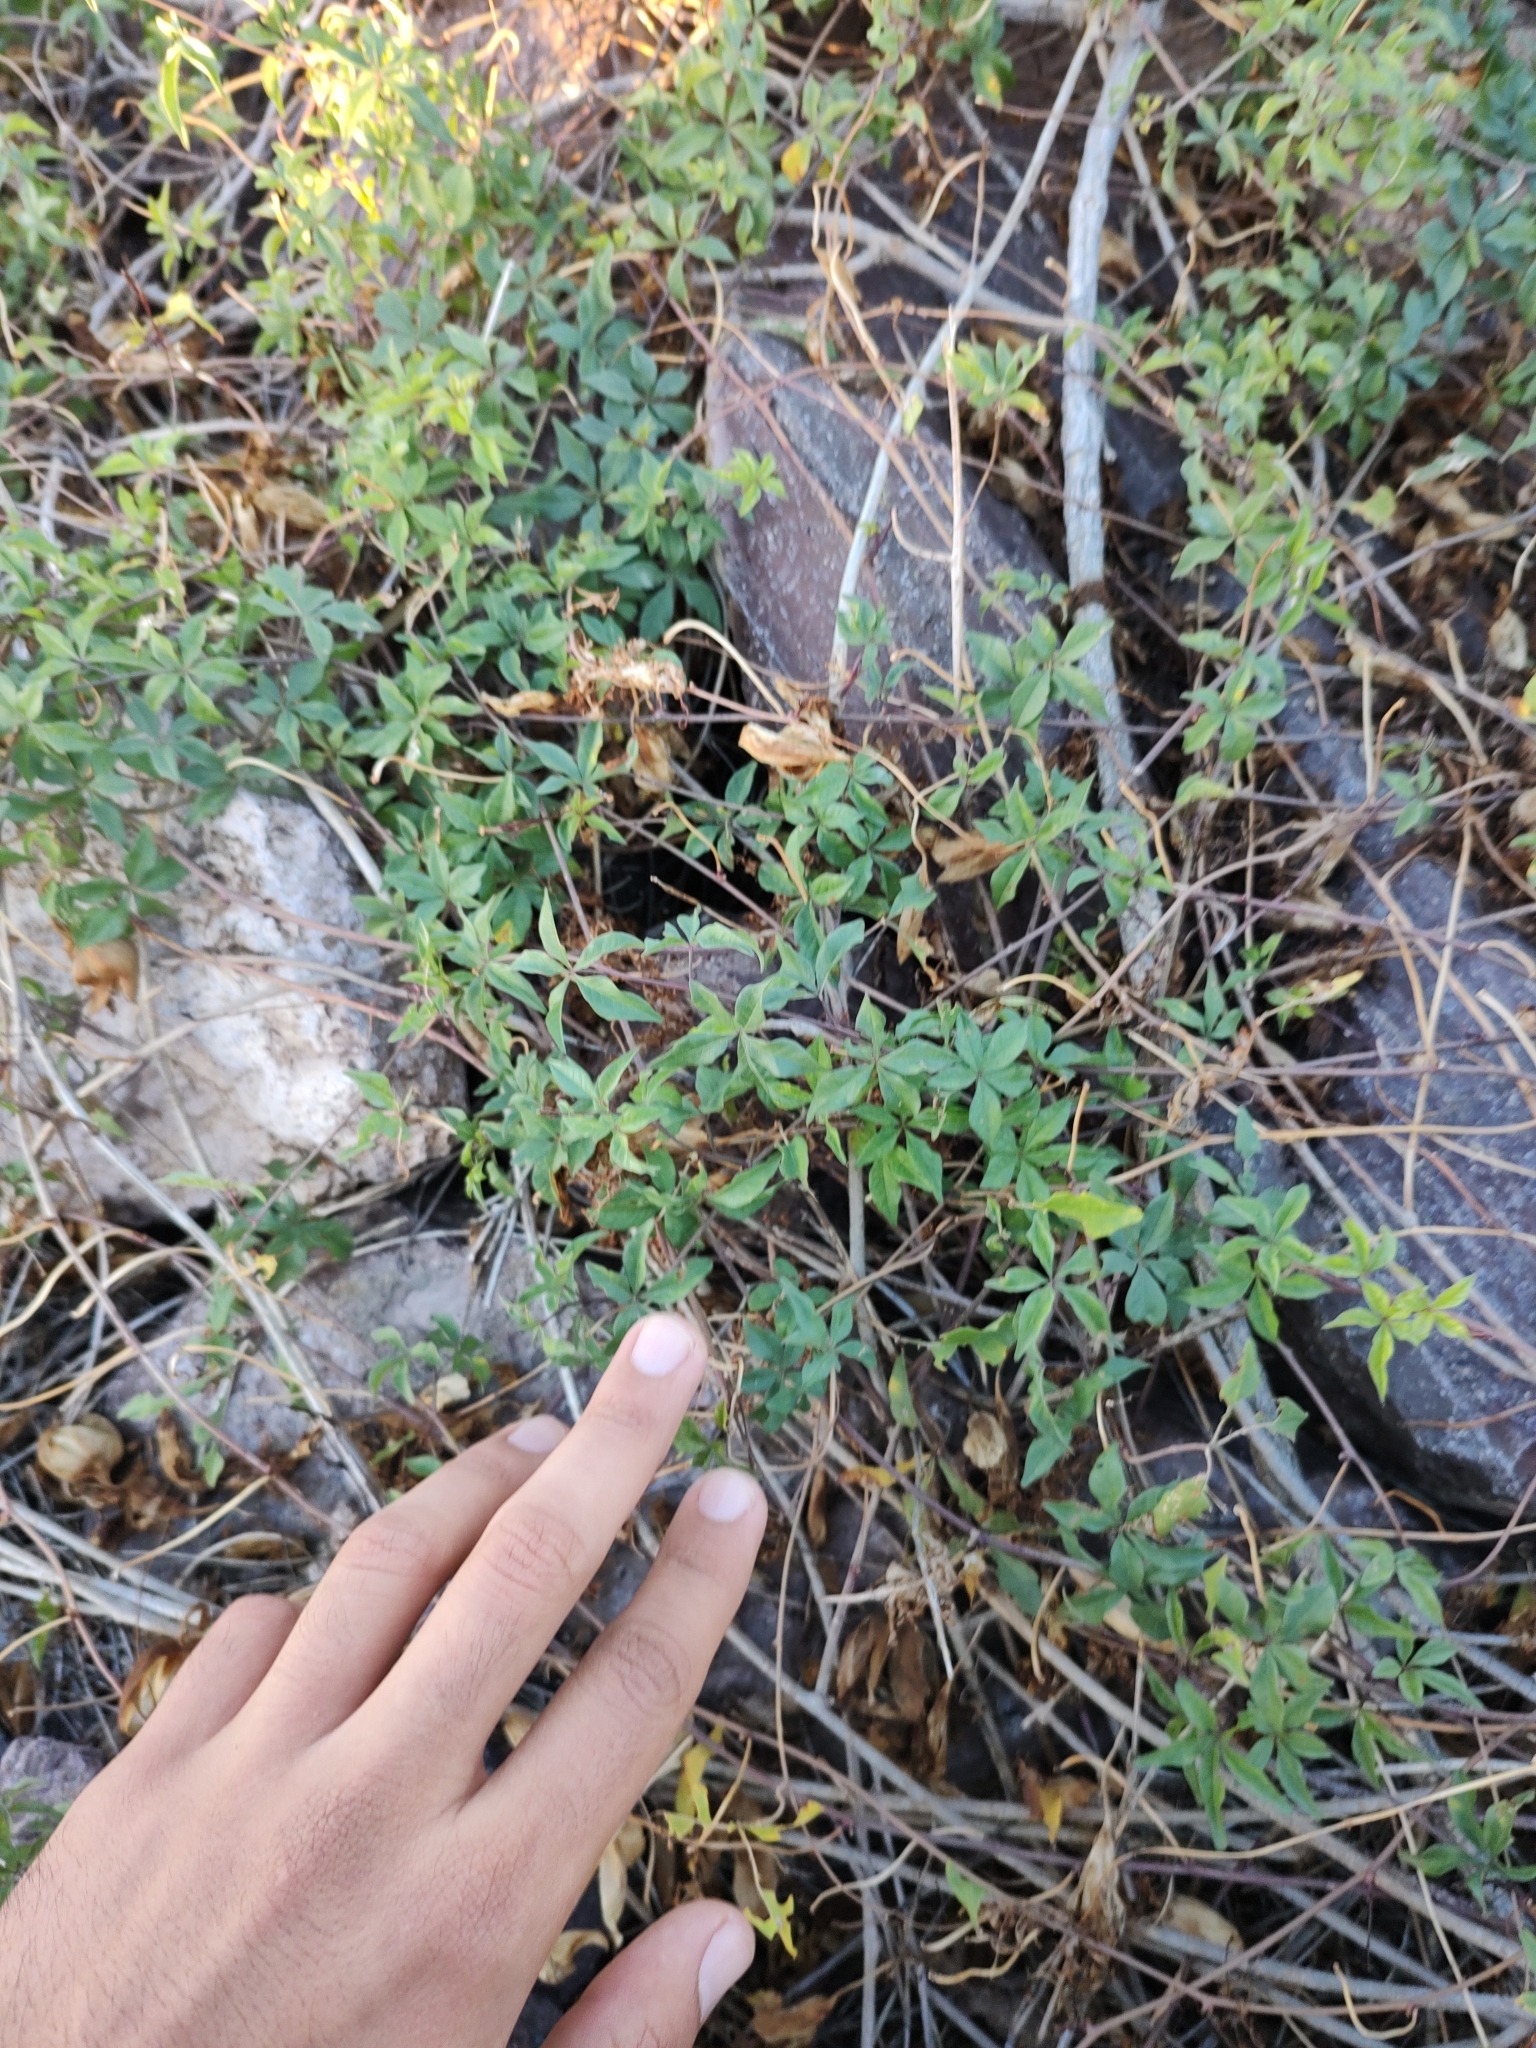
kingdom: Plantae
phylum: Tracheophyta
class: Magnoliopsida
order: Solanales
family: Convolvulaceae
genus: Distimake
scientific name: Distimake aureus
